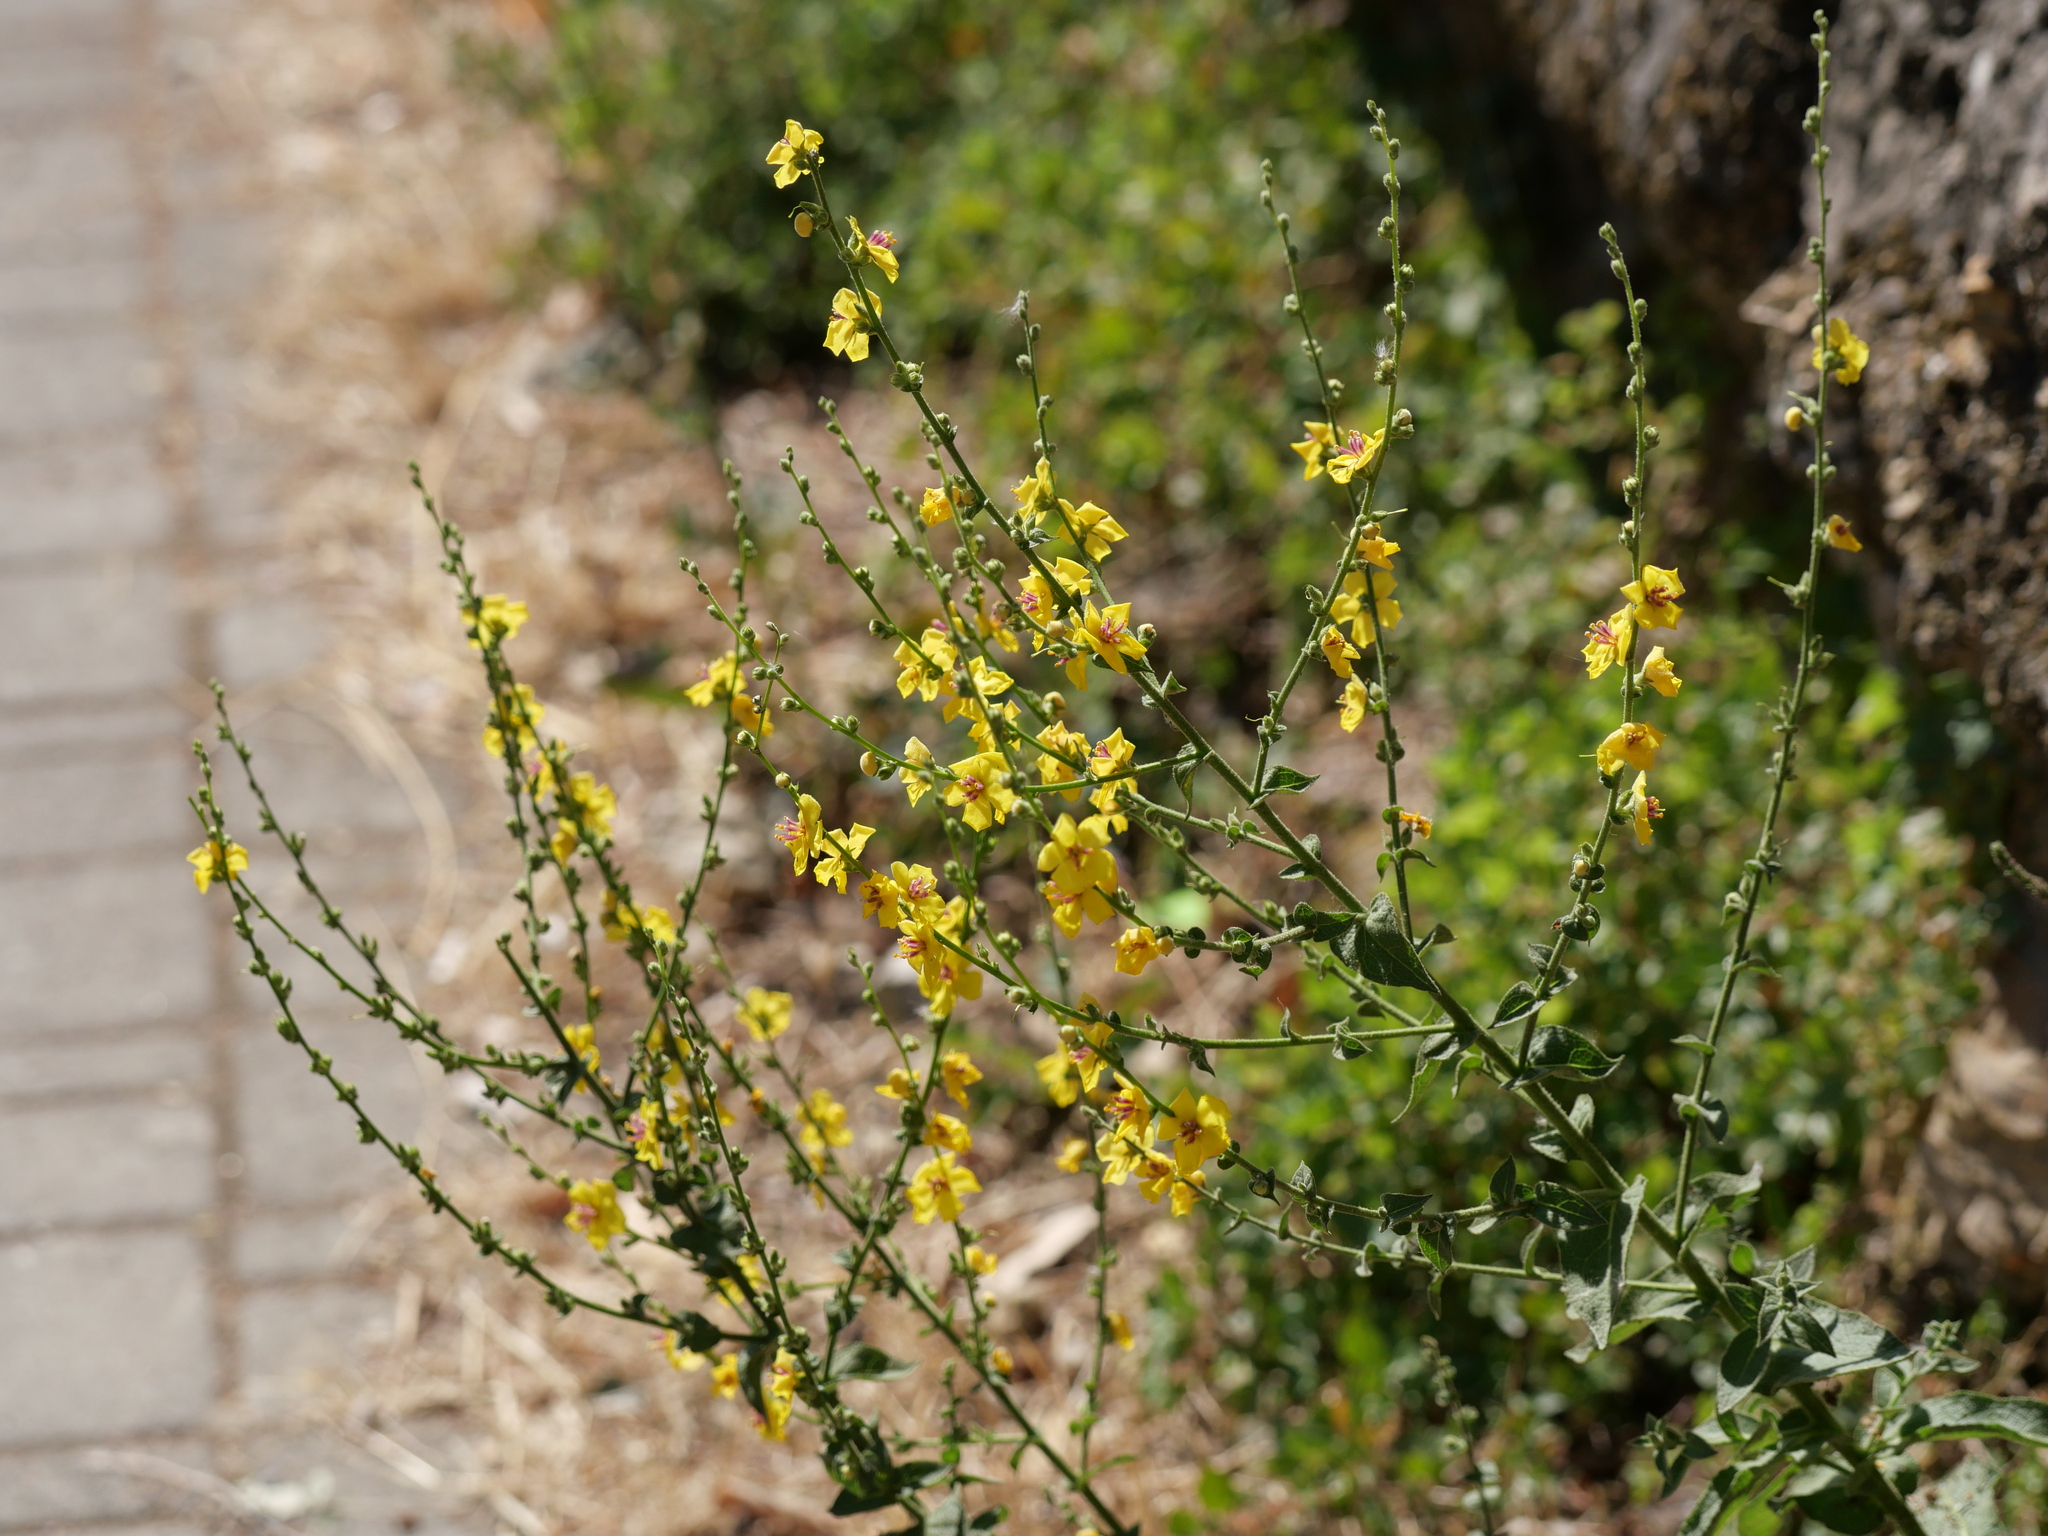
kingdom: Plantae
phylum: Tracheophyta
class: Magnoliopsida
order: Lamiales
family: Scrophulariaceae
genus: Verbascum
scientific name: Verbascum sinuatum
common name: Wavyleaf mullein
